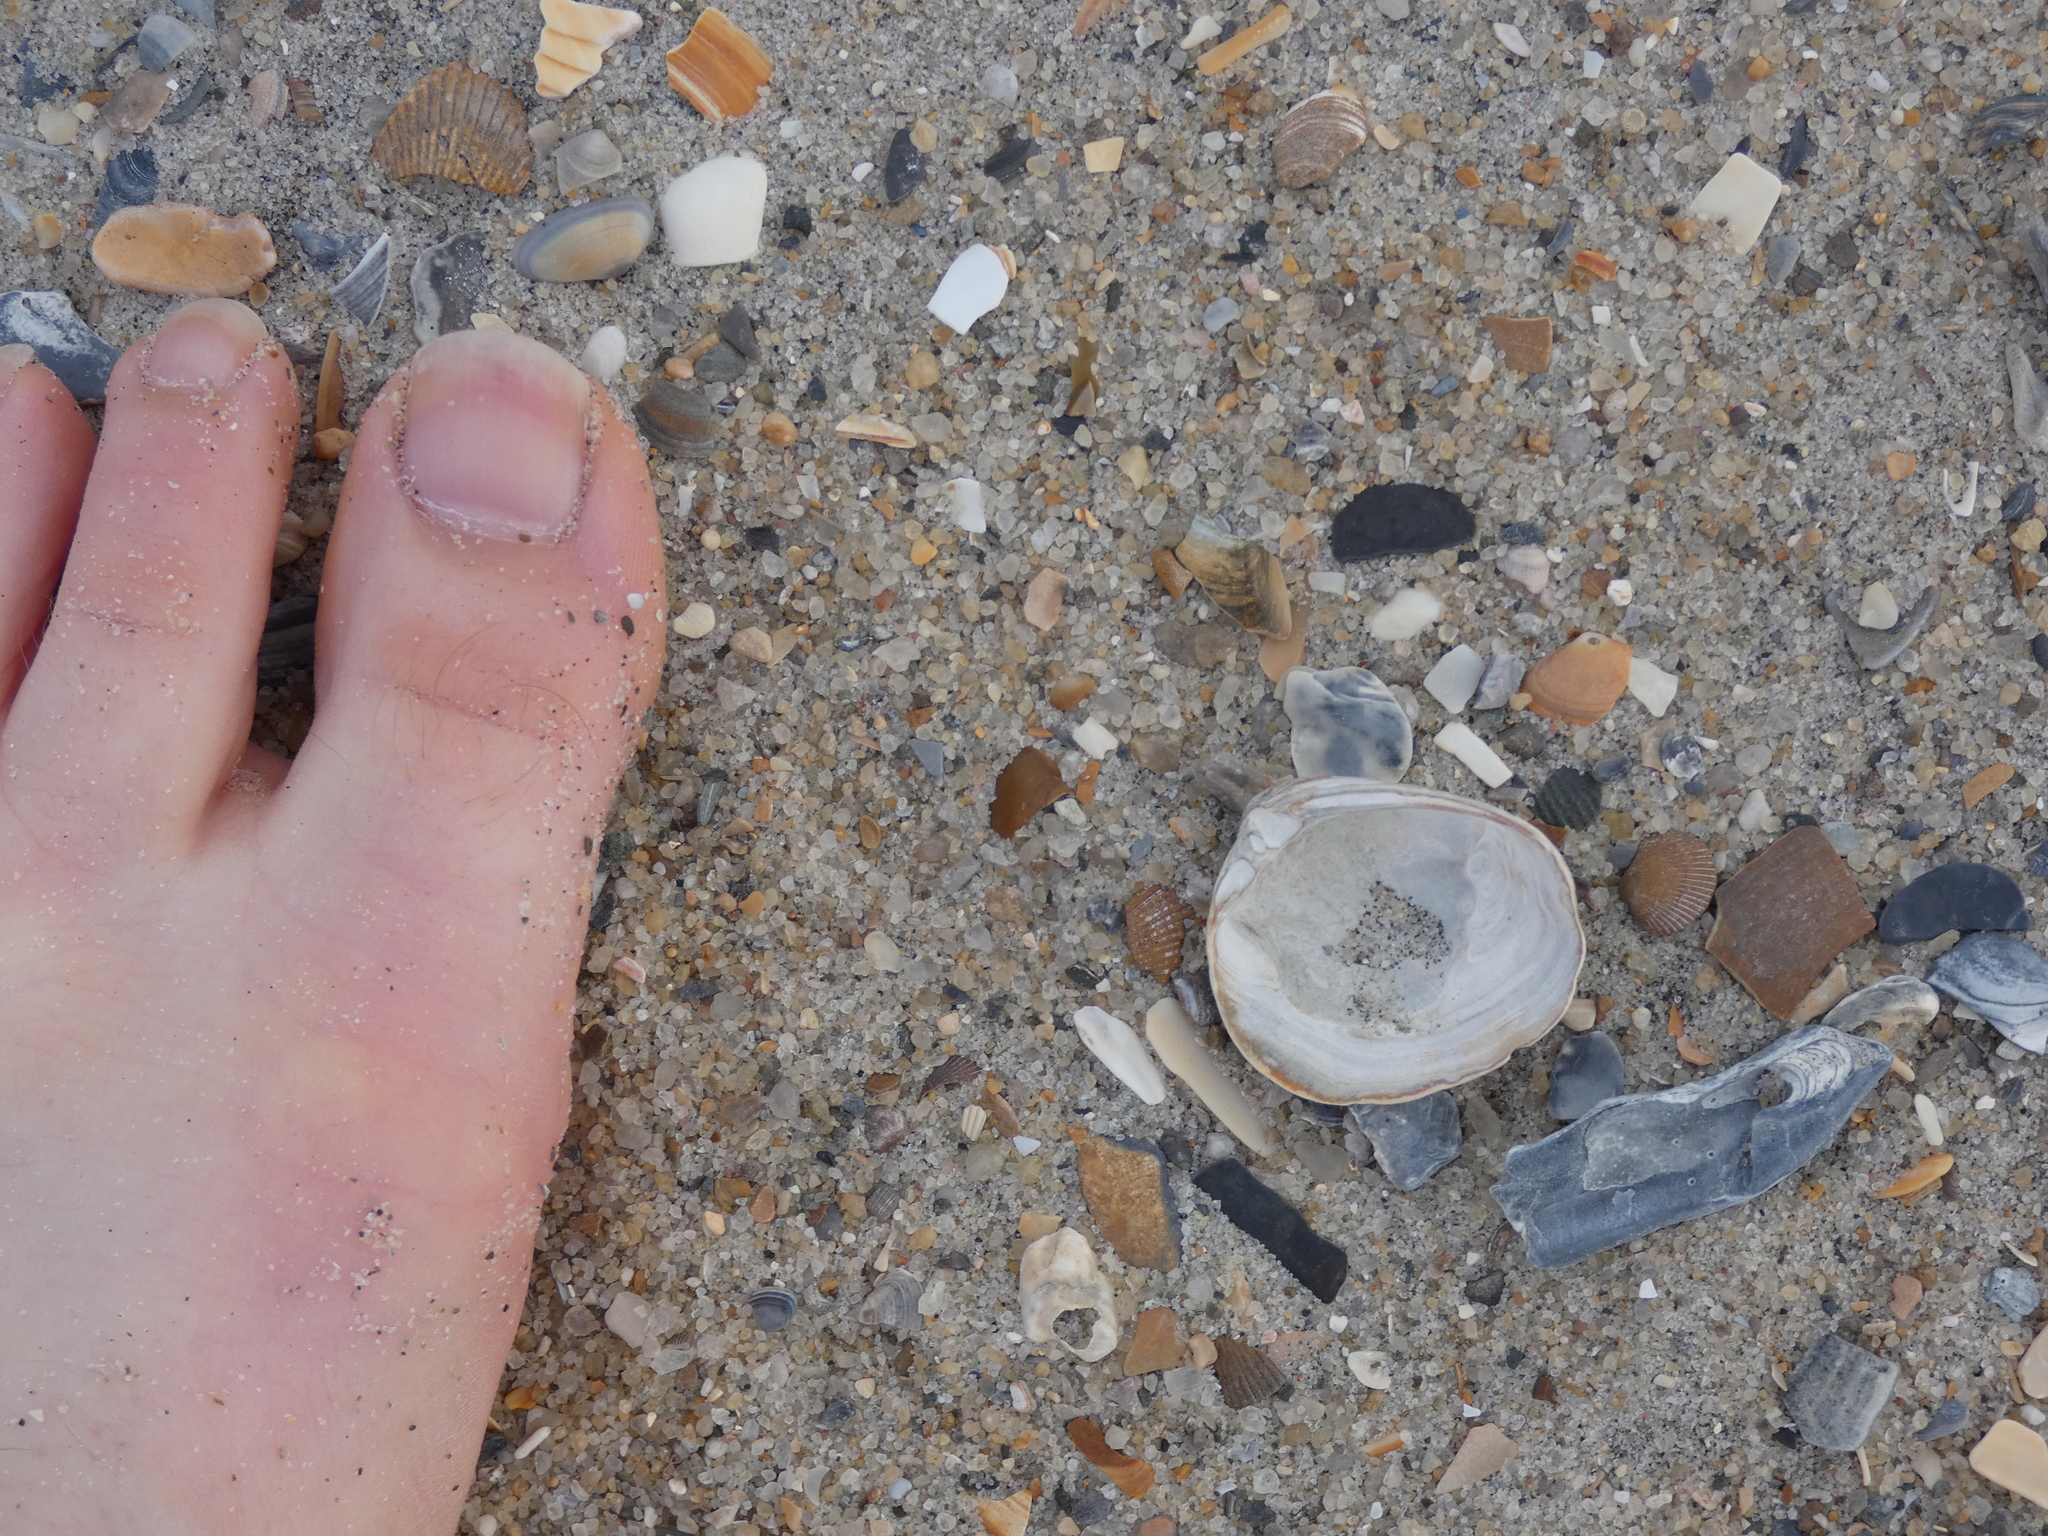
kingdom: Animalia
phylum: Mollusca
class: Bivalvia
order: Venerida
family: Mactridae
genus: Rangia
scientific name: Rangia cuneata
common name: Atlantic rangia
